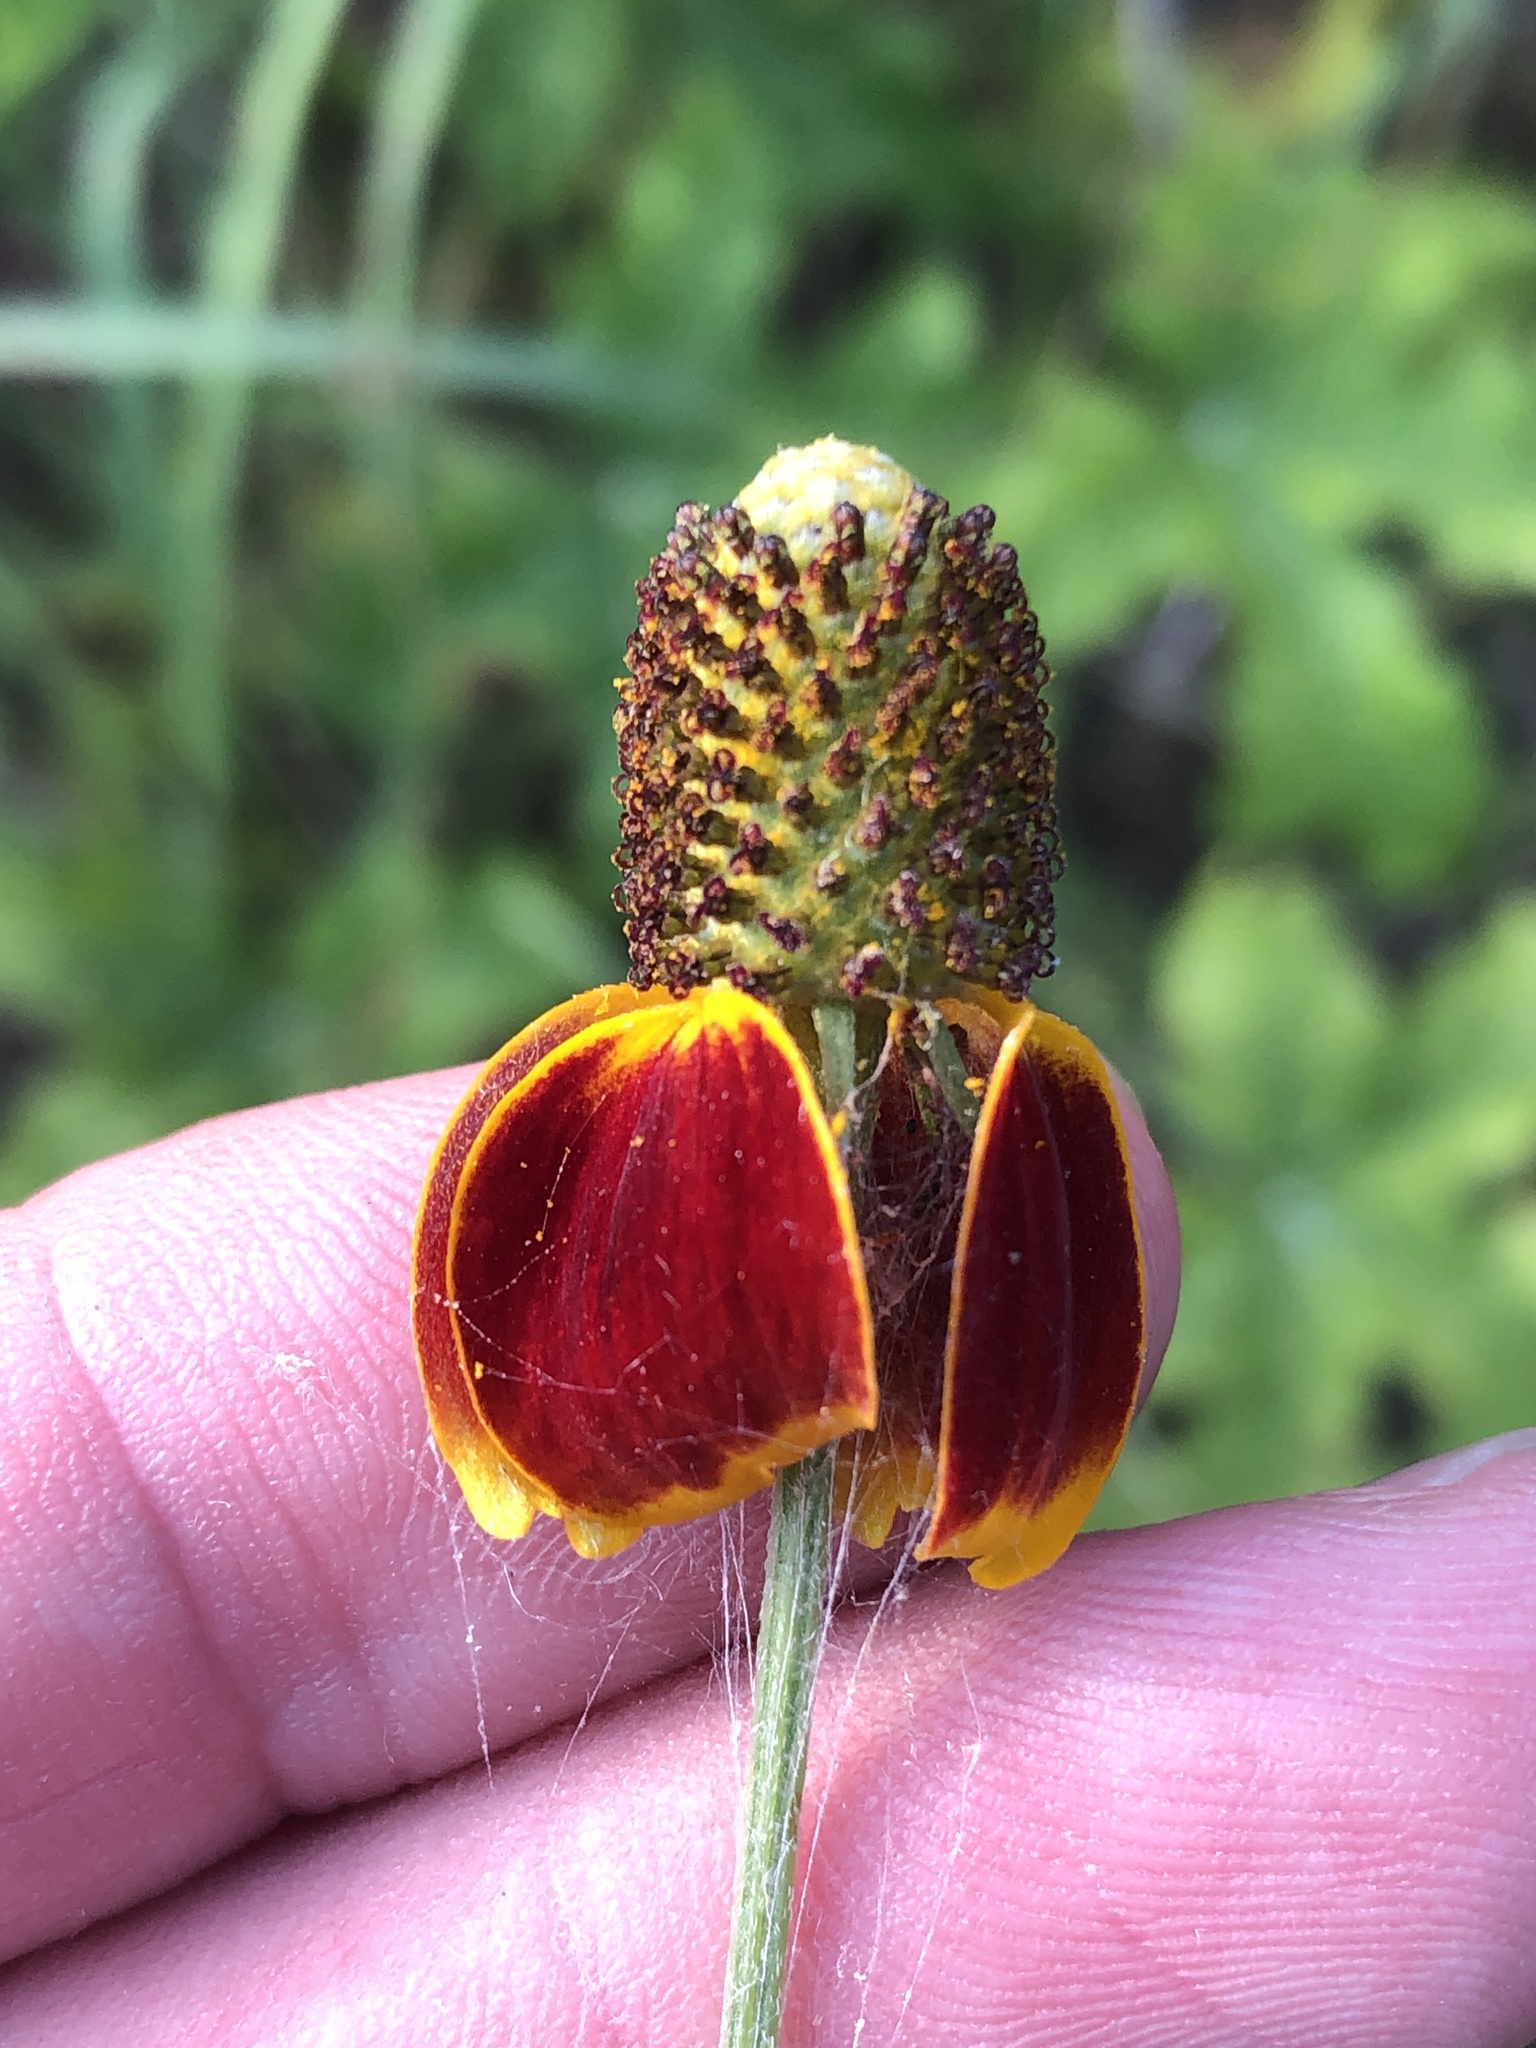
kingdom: Plantae
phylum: Tracheophyta
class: Magnoliopsida
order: Asterales
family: Asteraceae
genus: Ratibida
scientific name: Ratibida columnifera
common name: Prairie coneflower
